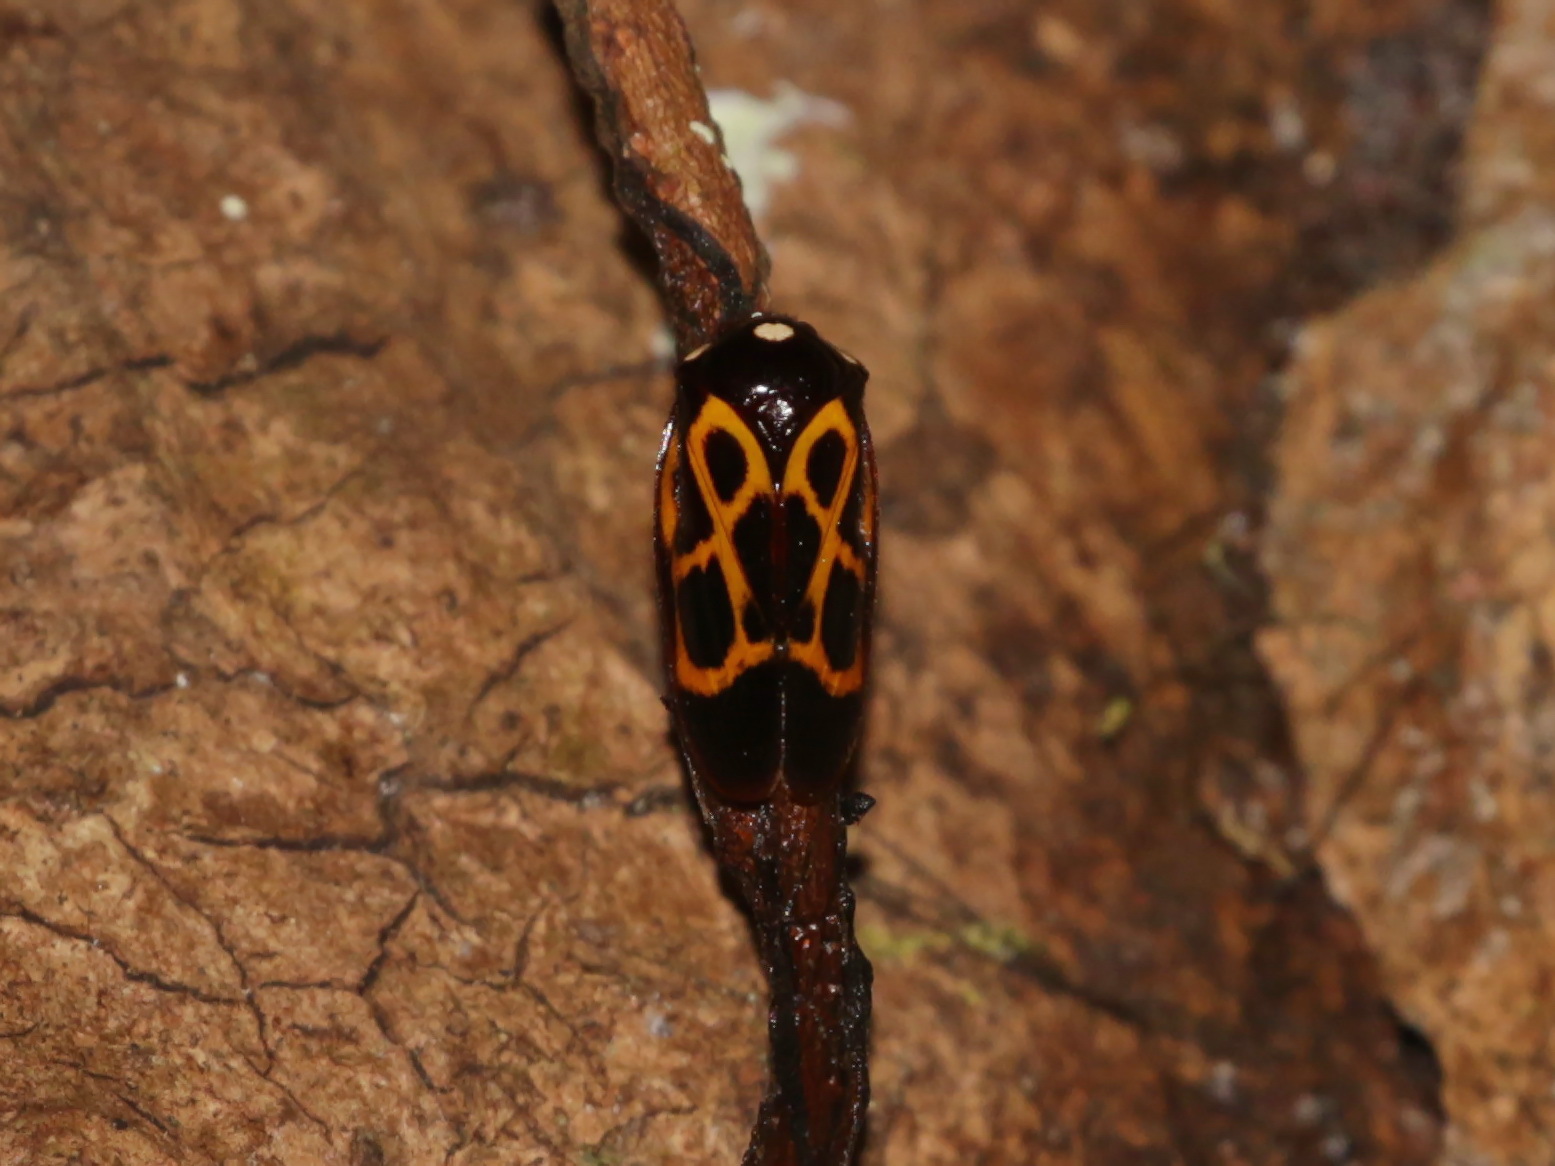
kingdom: Animalia
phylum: Arthropoda
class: Insecta
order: Hemiptera
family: Cercopidae
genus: Trichoscarta
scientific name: Trichoscarta chersonesia
